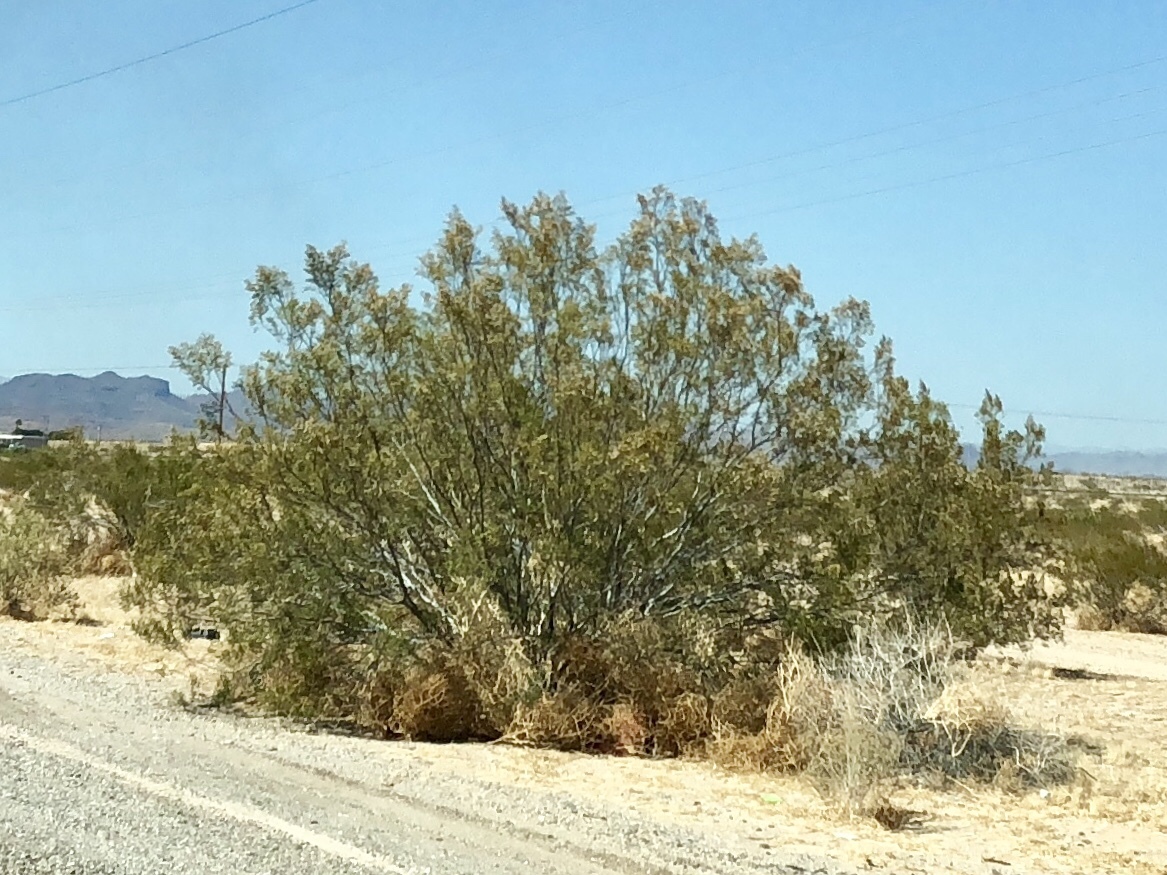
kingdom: Plantae
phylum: Tracheophyta
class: Magnoliopsida
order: Zygophyllales
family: Zygophyllaceae
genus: Larrea
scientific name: Larrea tridentata
